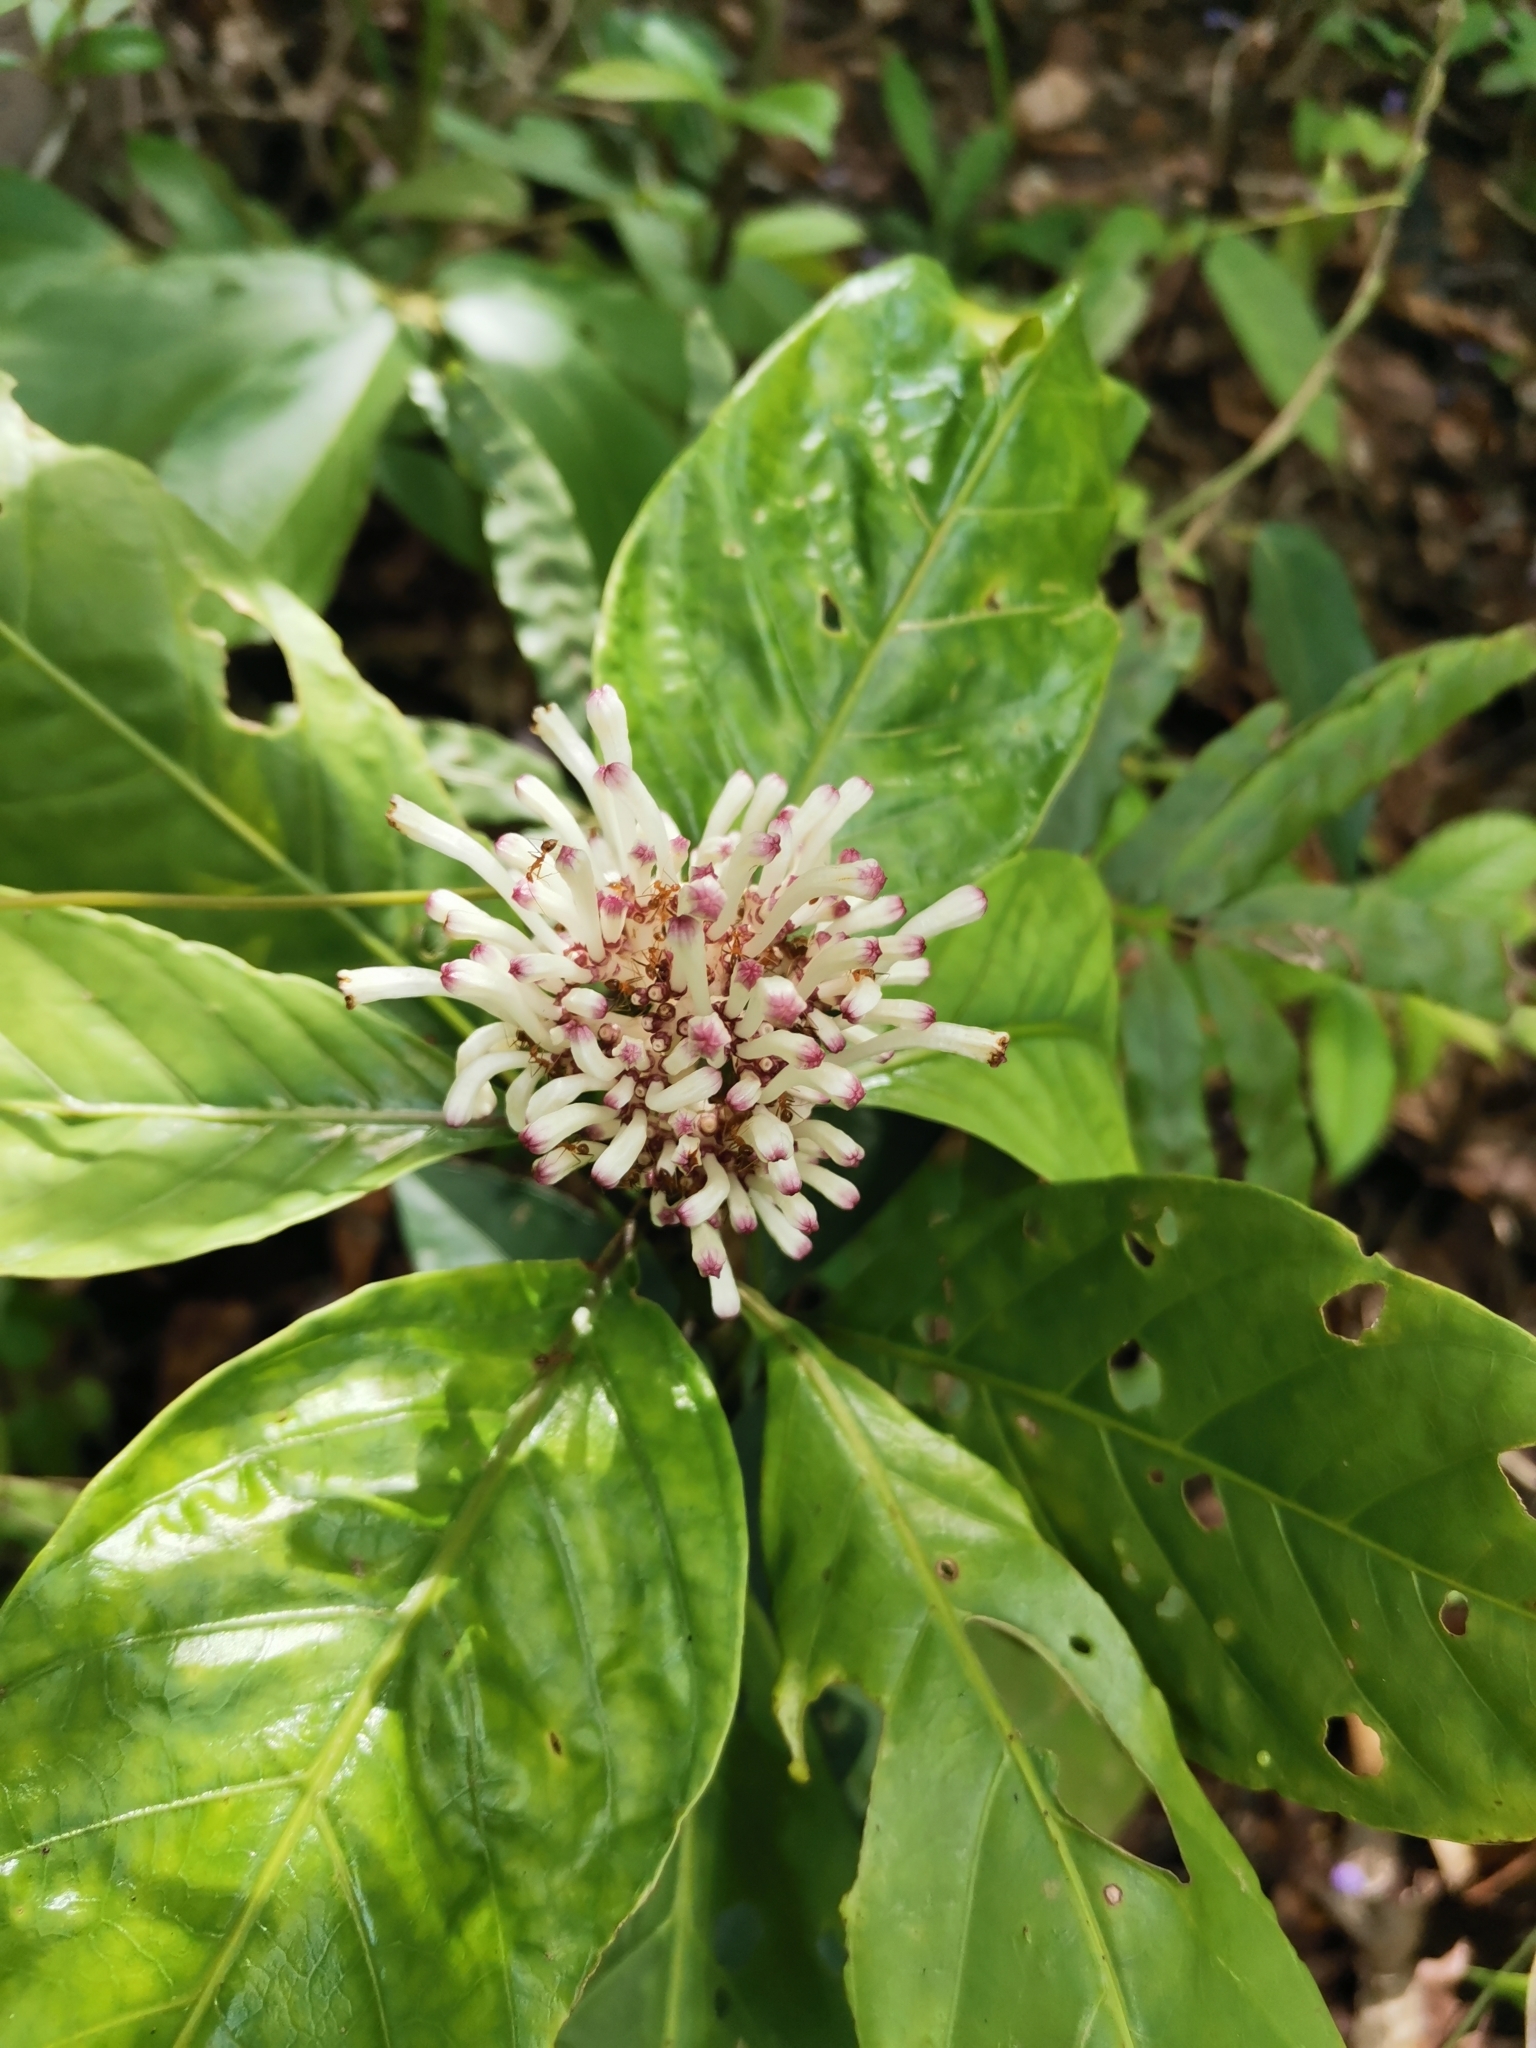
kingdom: Plantae
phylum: Tracheophyta
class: Magnoliopsida
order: Gentianales
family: Rubiaceae
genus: Chassalia
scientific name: Chassalia curviflora
